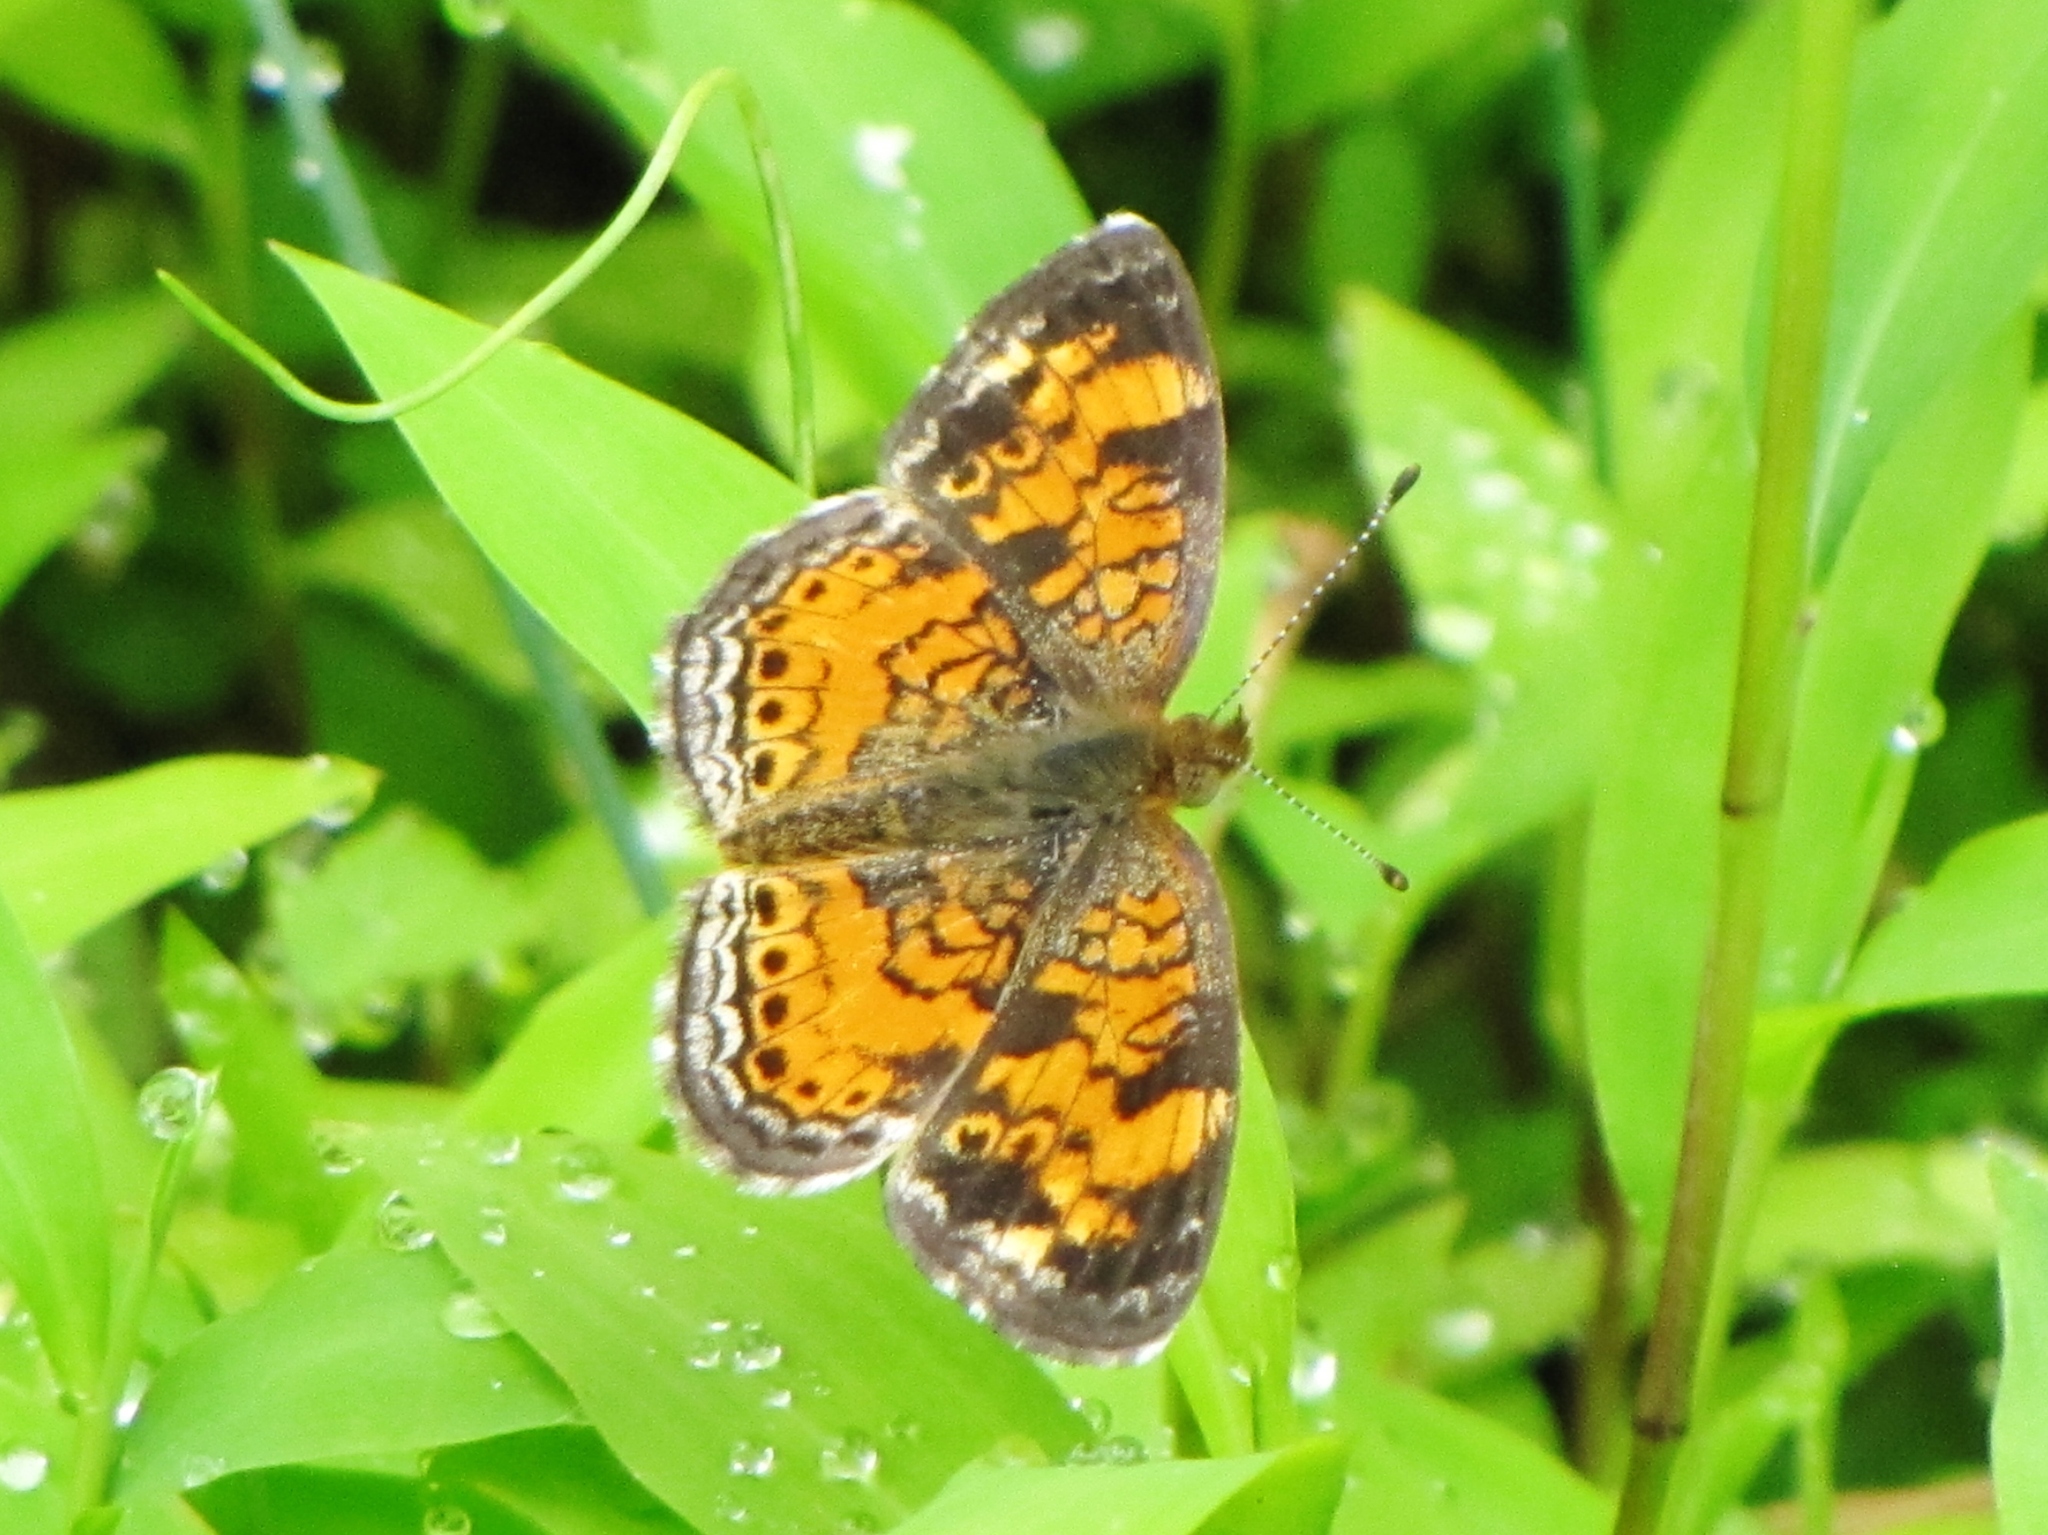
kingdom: Animalia
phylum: Arthropoda
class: Insecta
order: Lepidoptera
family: Nymphalidae
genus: Phyciodes
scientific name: Phyciodes tharos
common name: Pearl crescent
